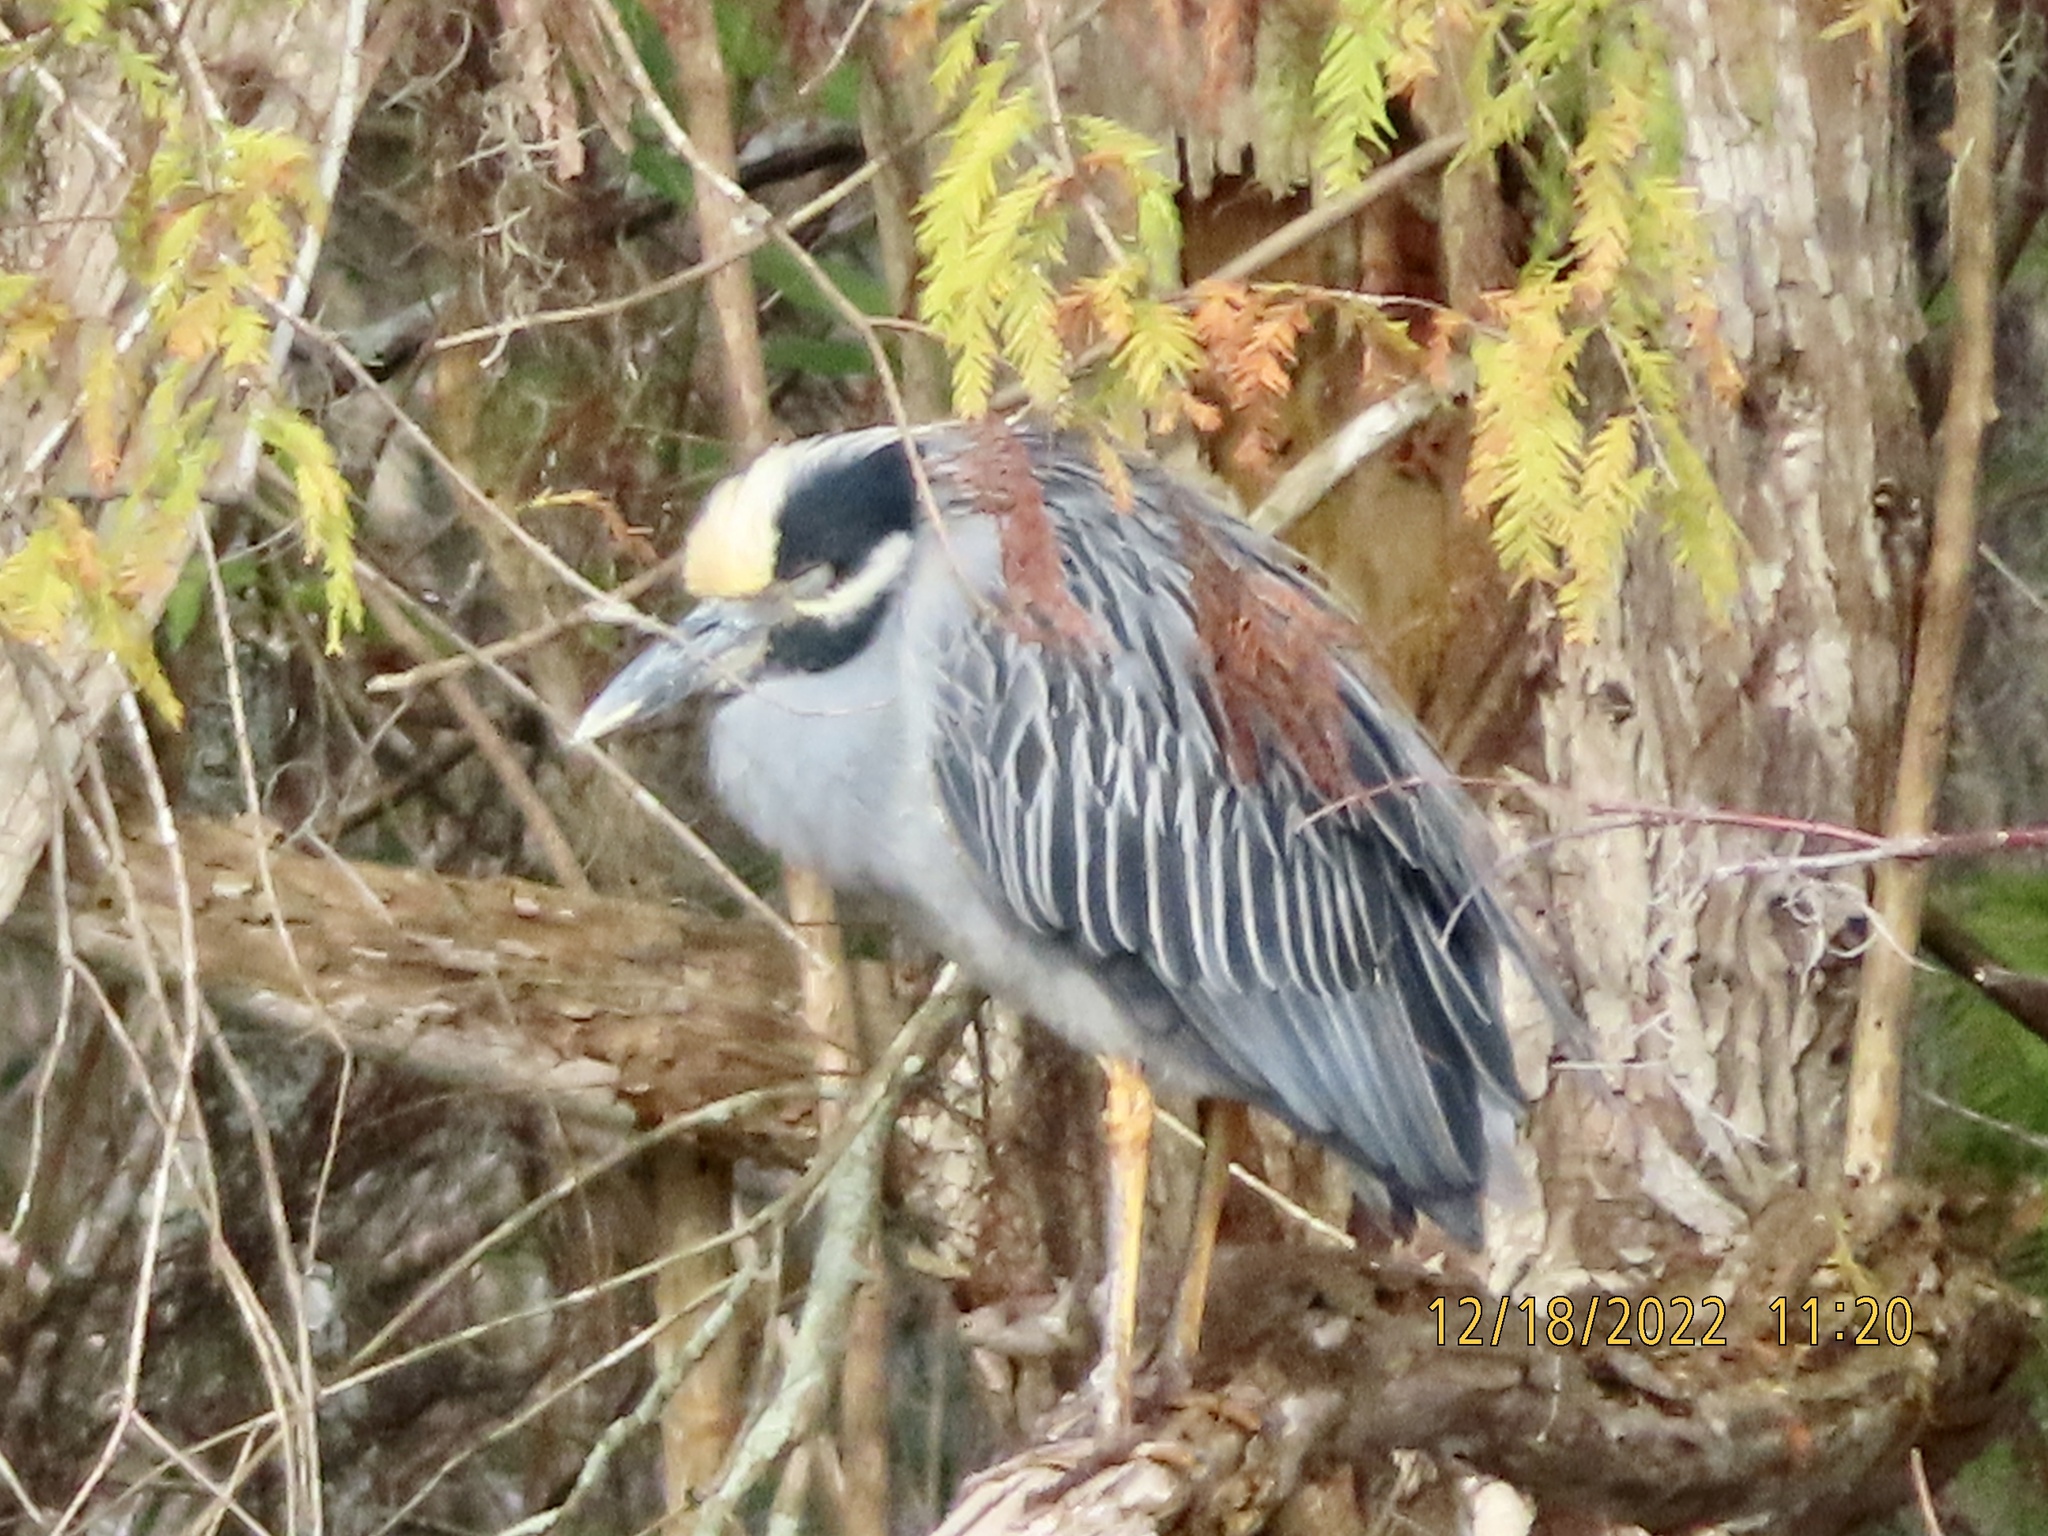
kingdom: Animalia
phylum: Chordata
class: Aves
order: Pelecaniformes
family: Ardeidae
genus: Nyctanassa
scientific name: Nyctanassa violacea
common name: Yellow-crowned night heron
